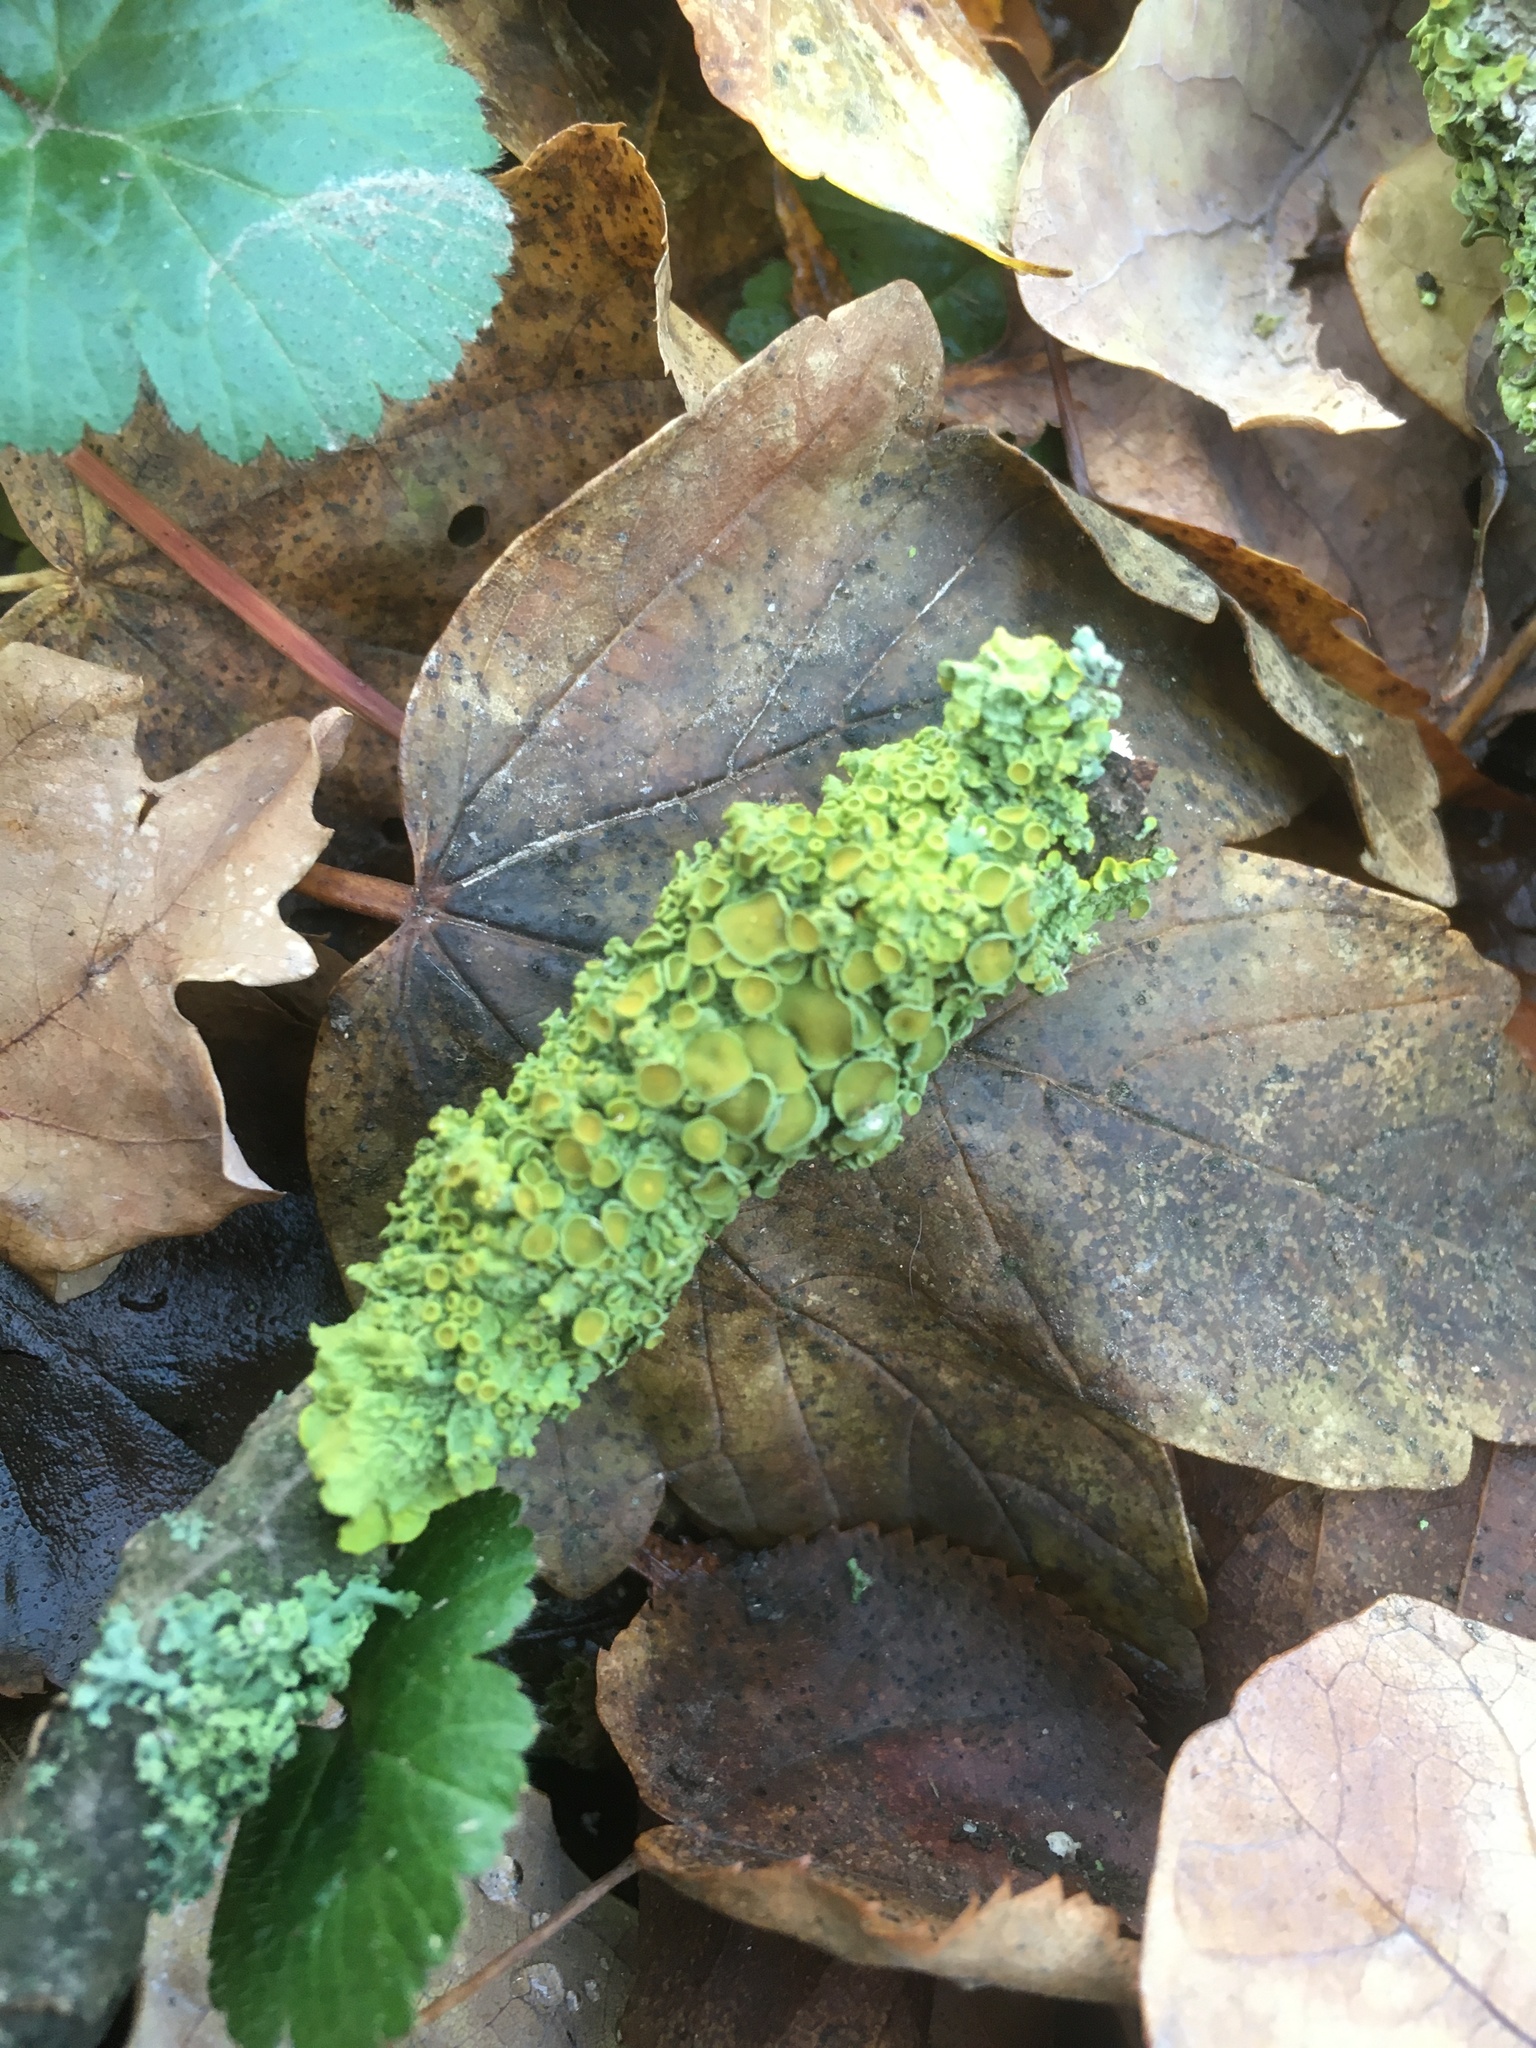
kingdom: Fungi
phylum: Ascomycota
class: Lecanoromycetes
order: Teloschistales
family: Teloschistaceae
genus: Xanthoria
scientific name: Xanthoria parietina
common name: Common orange lichen
